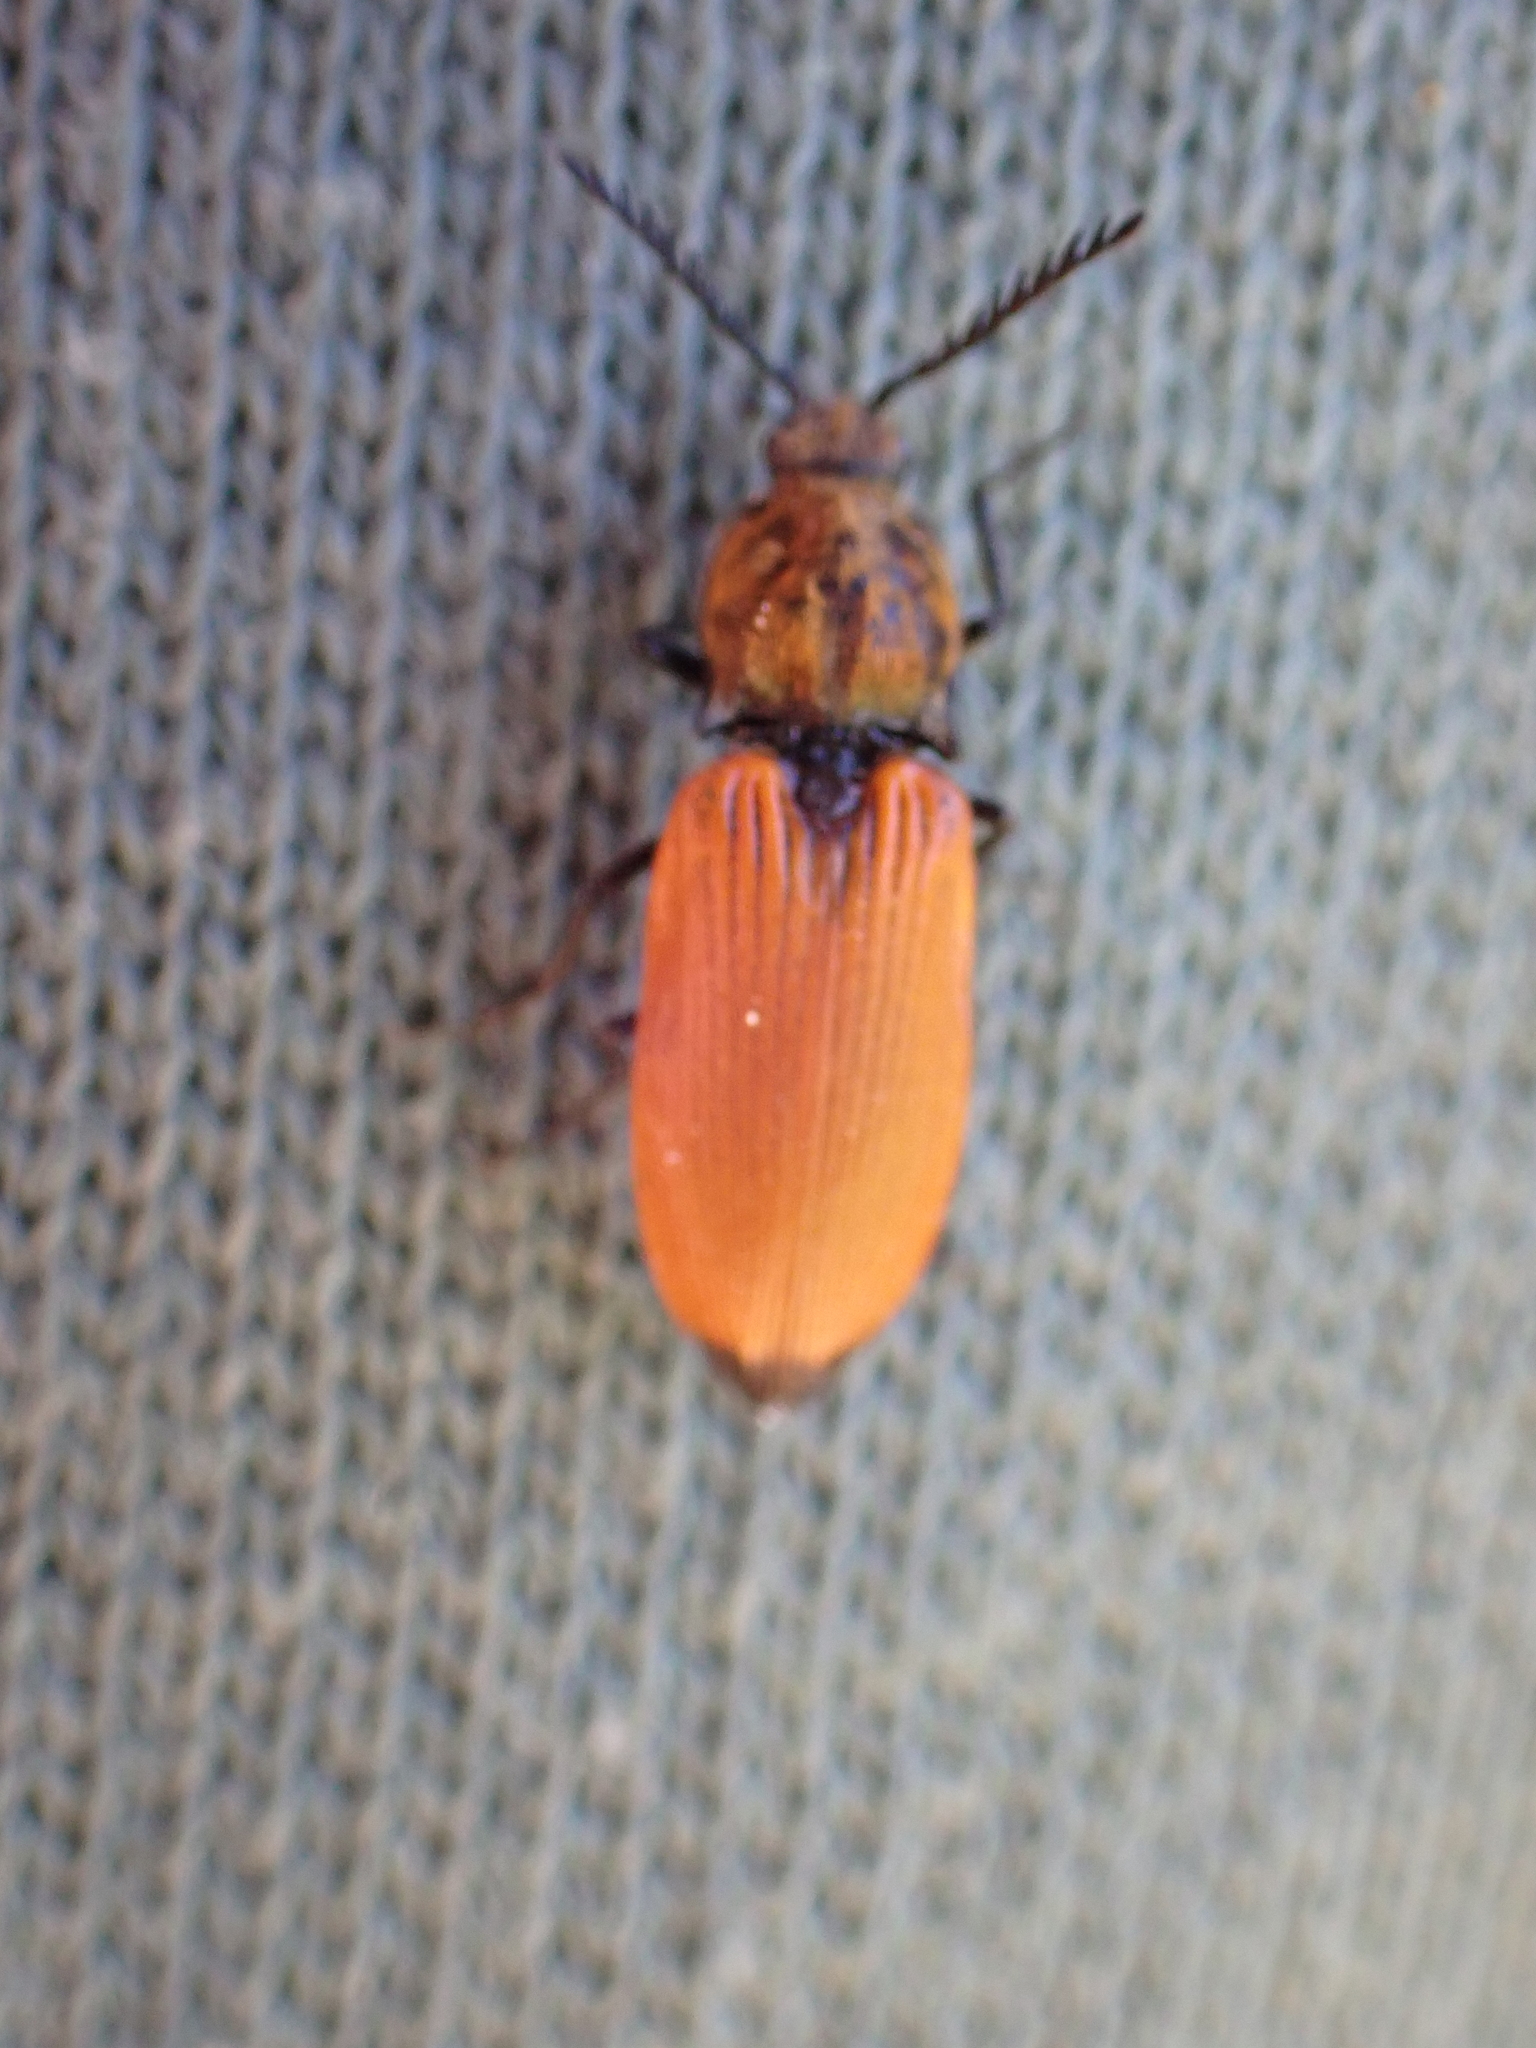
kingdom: Animalia
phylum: Arthropoda
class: Insecta
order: Coleoptera
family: Elateridae
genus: Anostirus
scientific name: Anostirus castaneus
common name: Chestnut coloured click beetle
